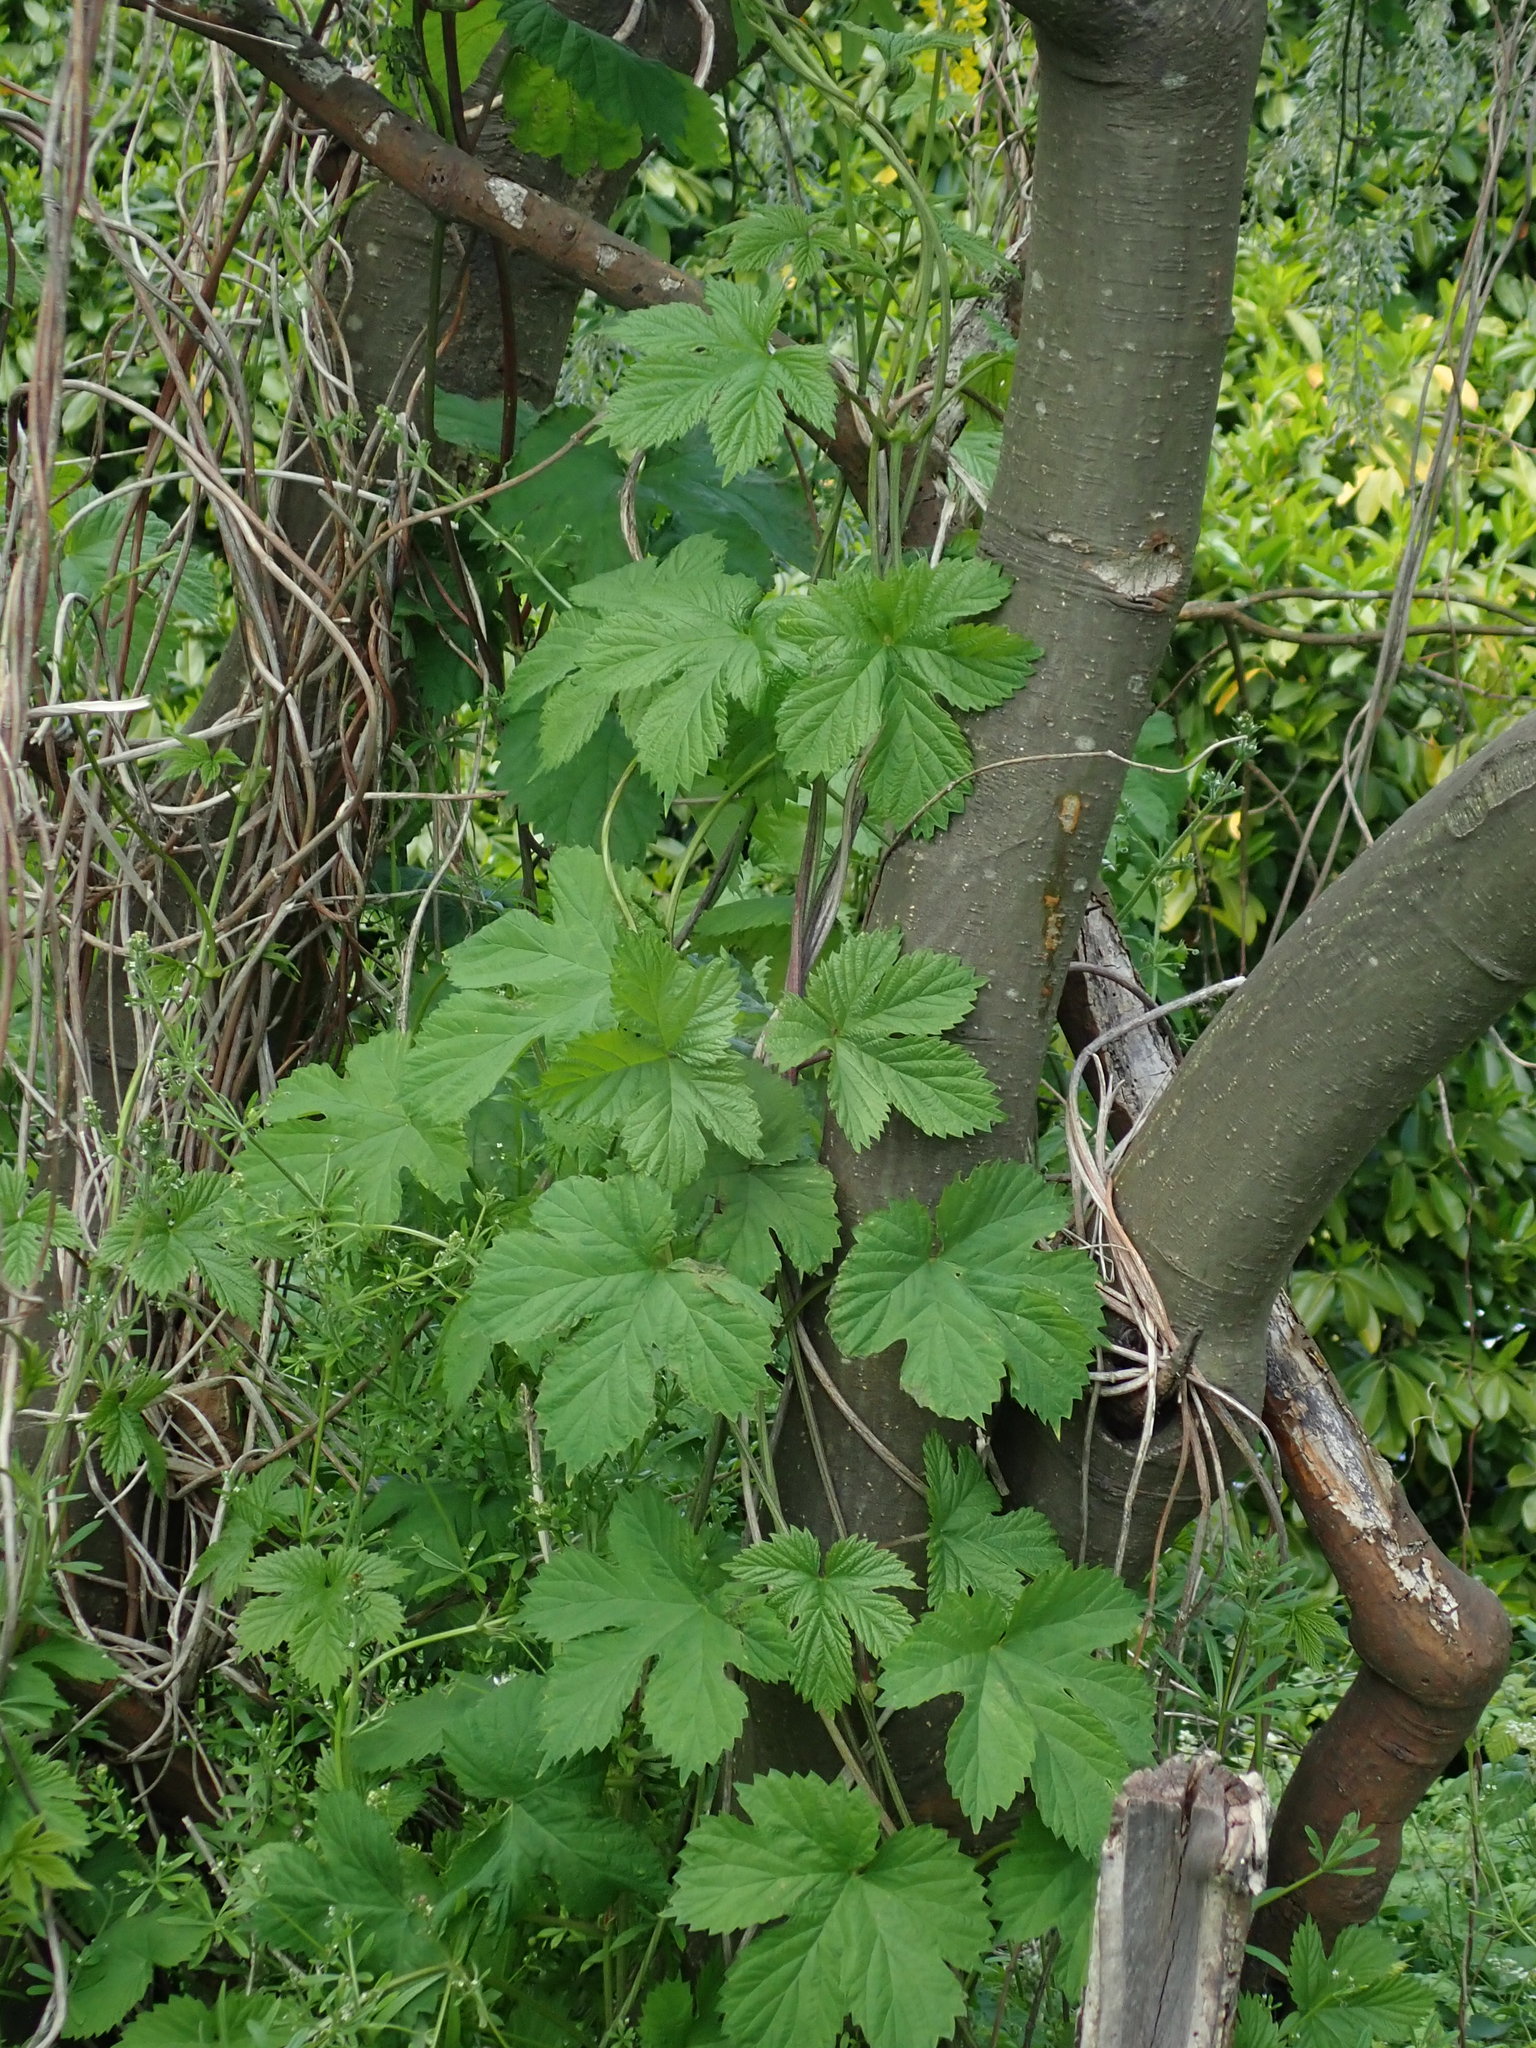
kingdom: Plantae
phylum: Tracheophyta
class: Magnoliopsida
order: Rosales
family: Cannabaceae
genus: Humulus
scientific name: Humulus lupulus
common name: Hop
